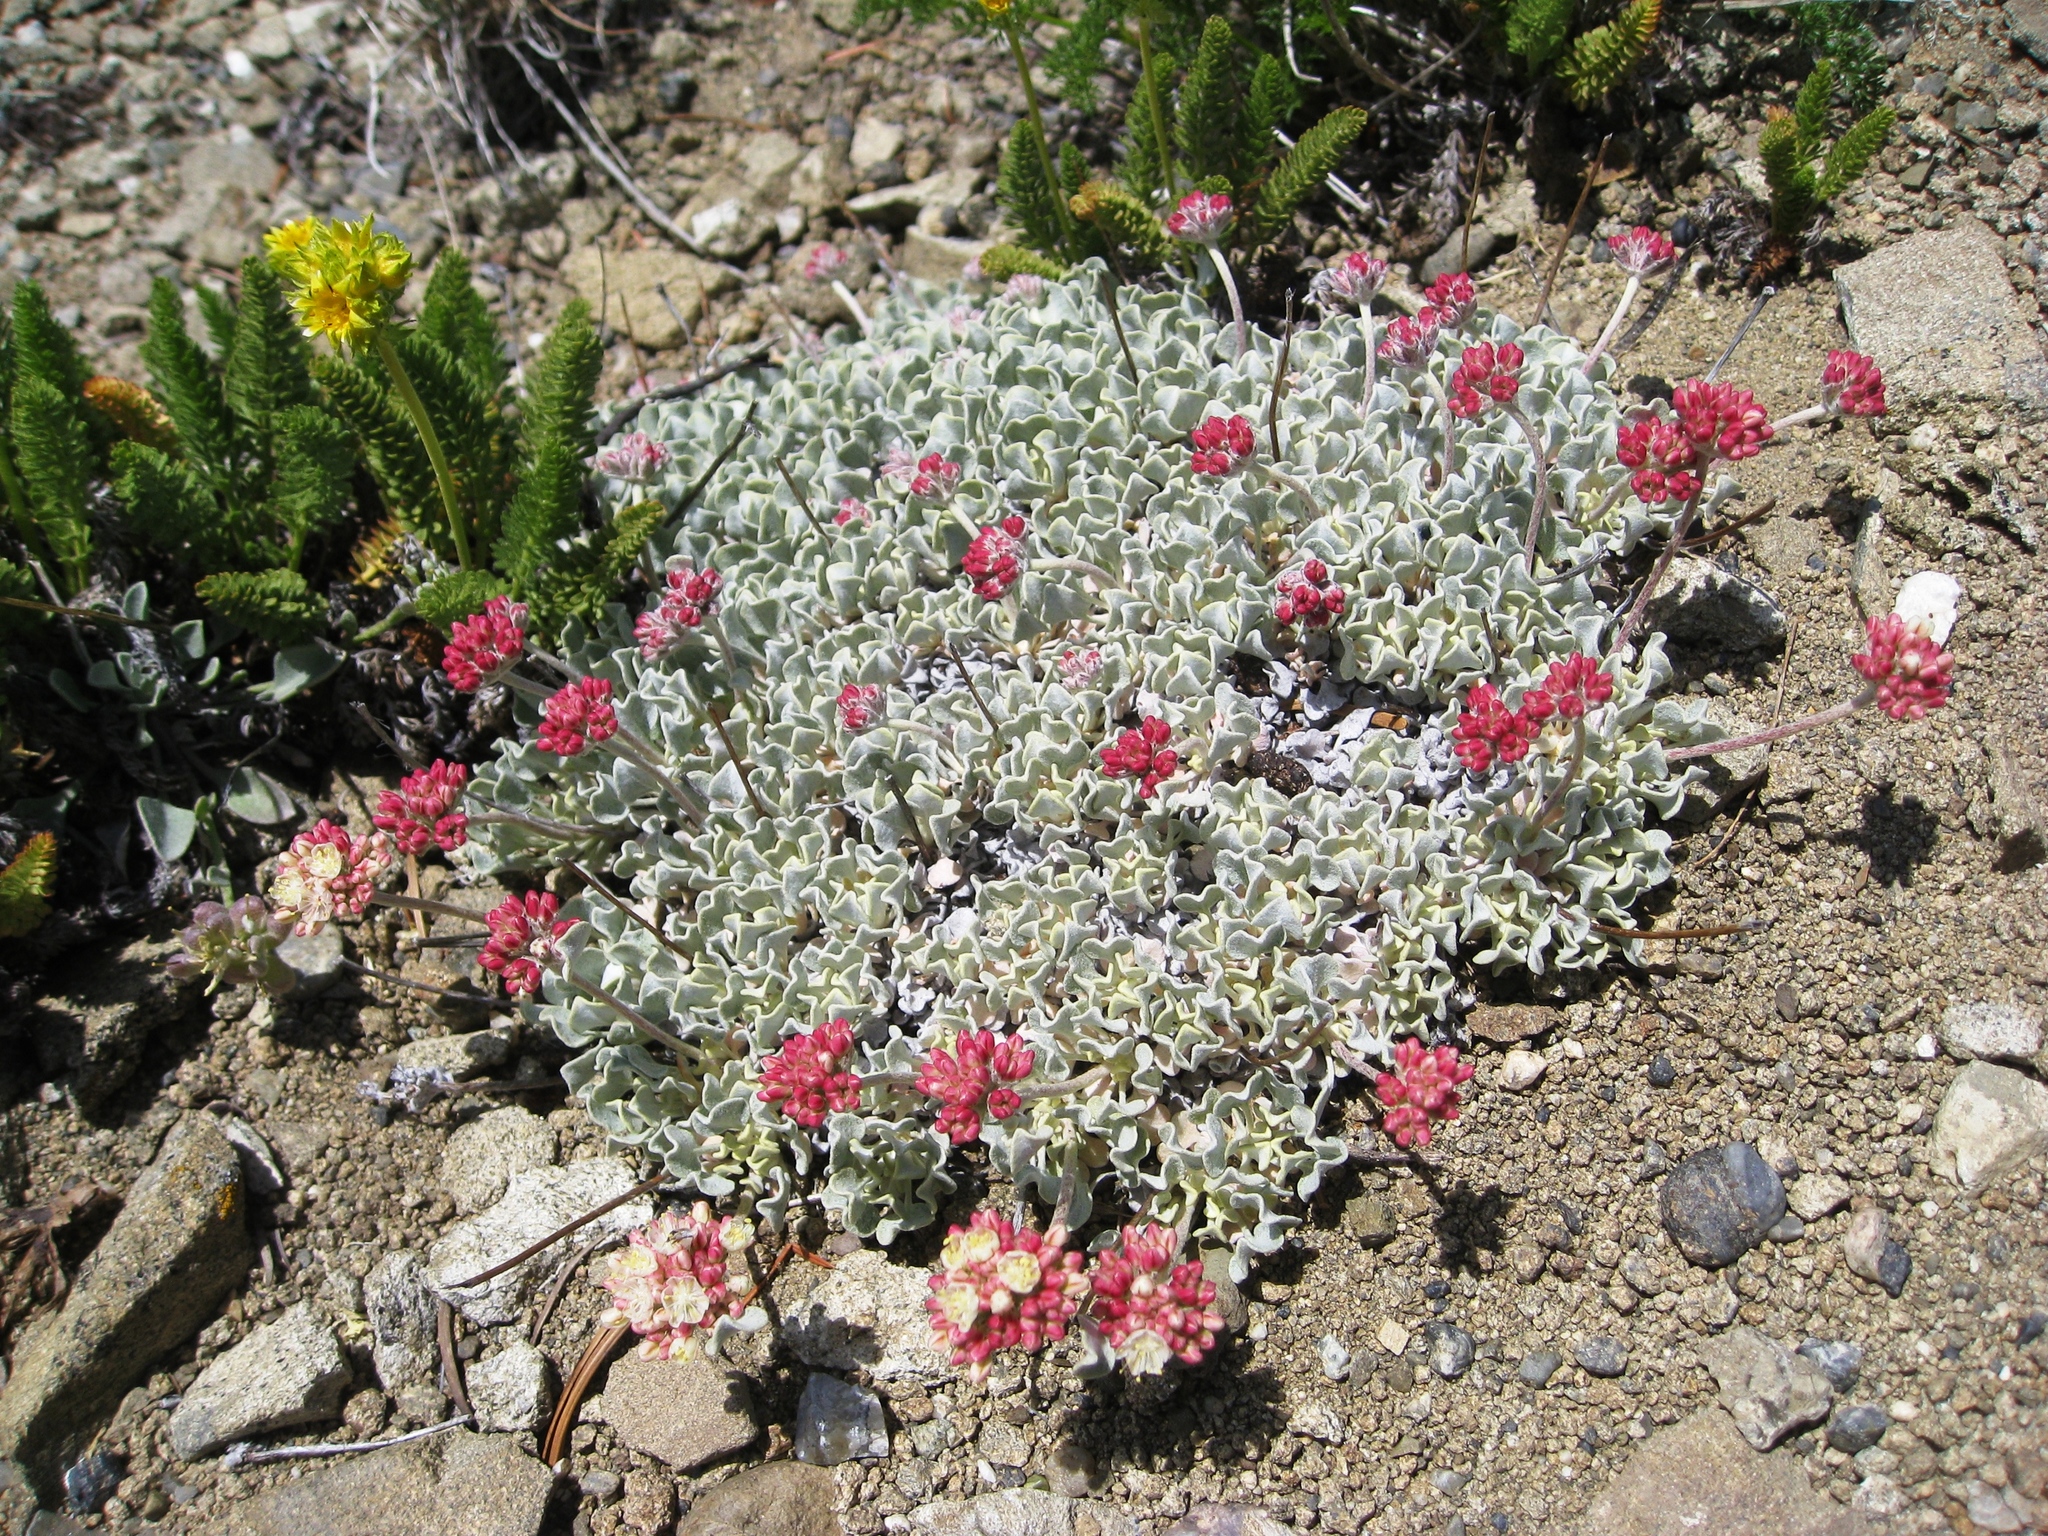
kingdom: Plantae
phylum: Tracheophyta
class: Magnoliopsida
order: Caryophyllales
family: Polygonaceae
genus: Eriogonum
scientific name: Eriogonum ovalifolium
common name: Cushion buckwheat
